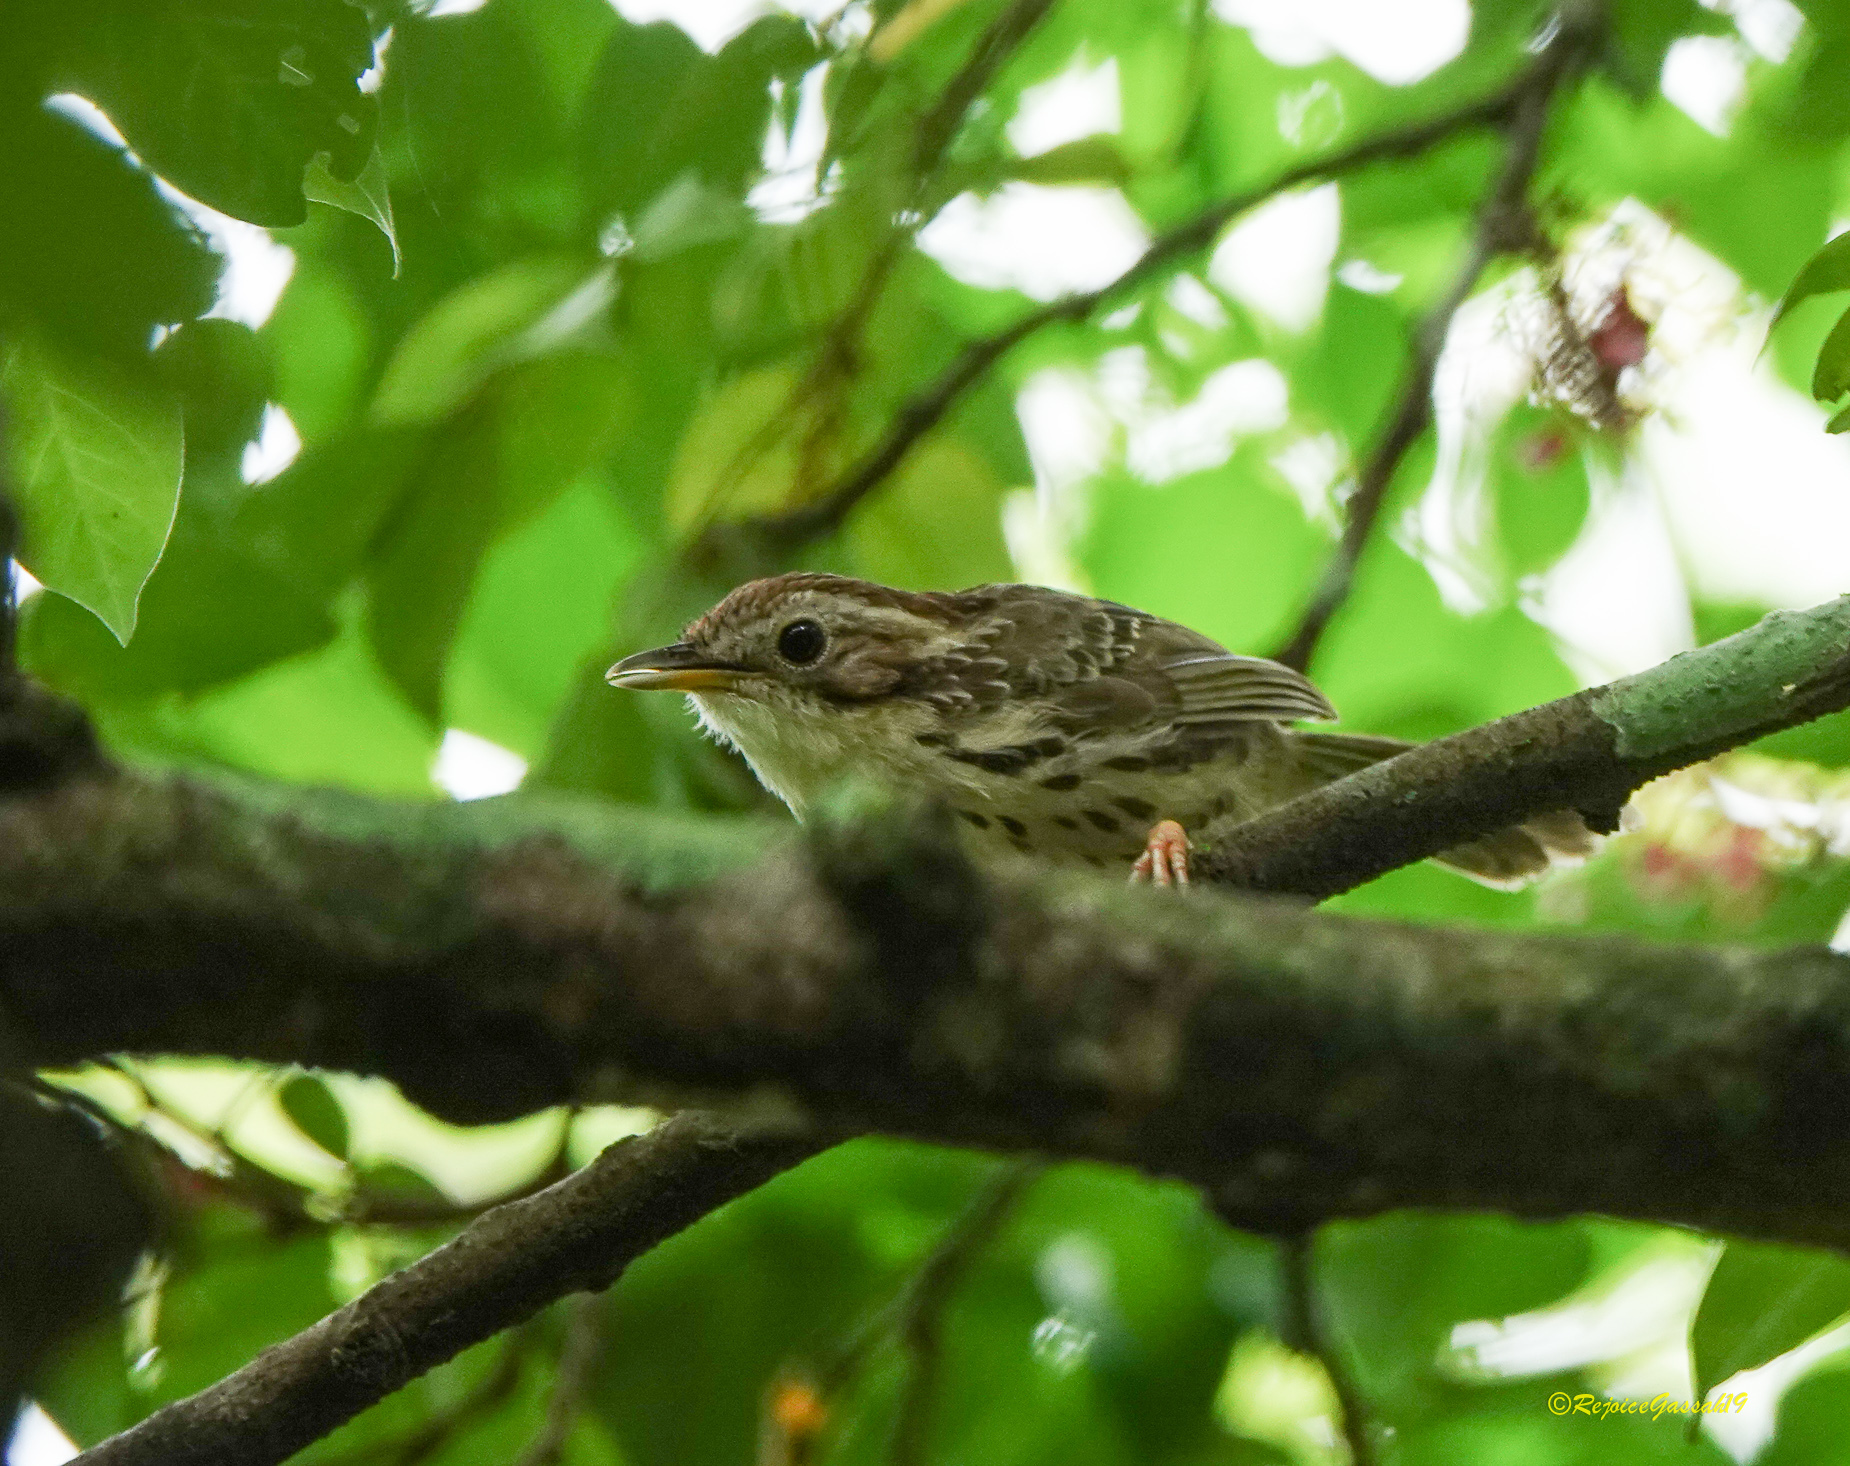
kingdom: Animalia
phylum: Chordata
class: Aves
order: Passeriformes
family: Pellorneidae
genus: Pellorneum
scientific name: Pellorneum ruficeps
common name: Puff-throated babbler
